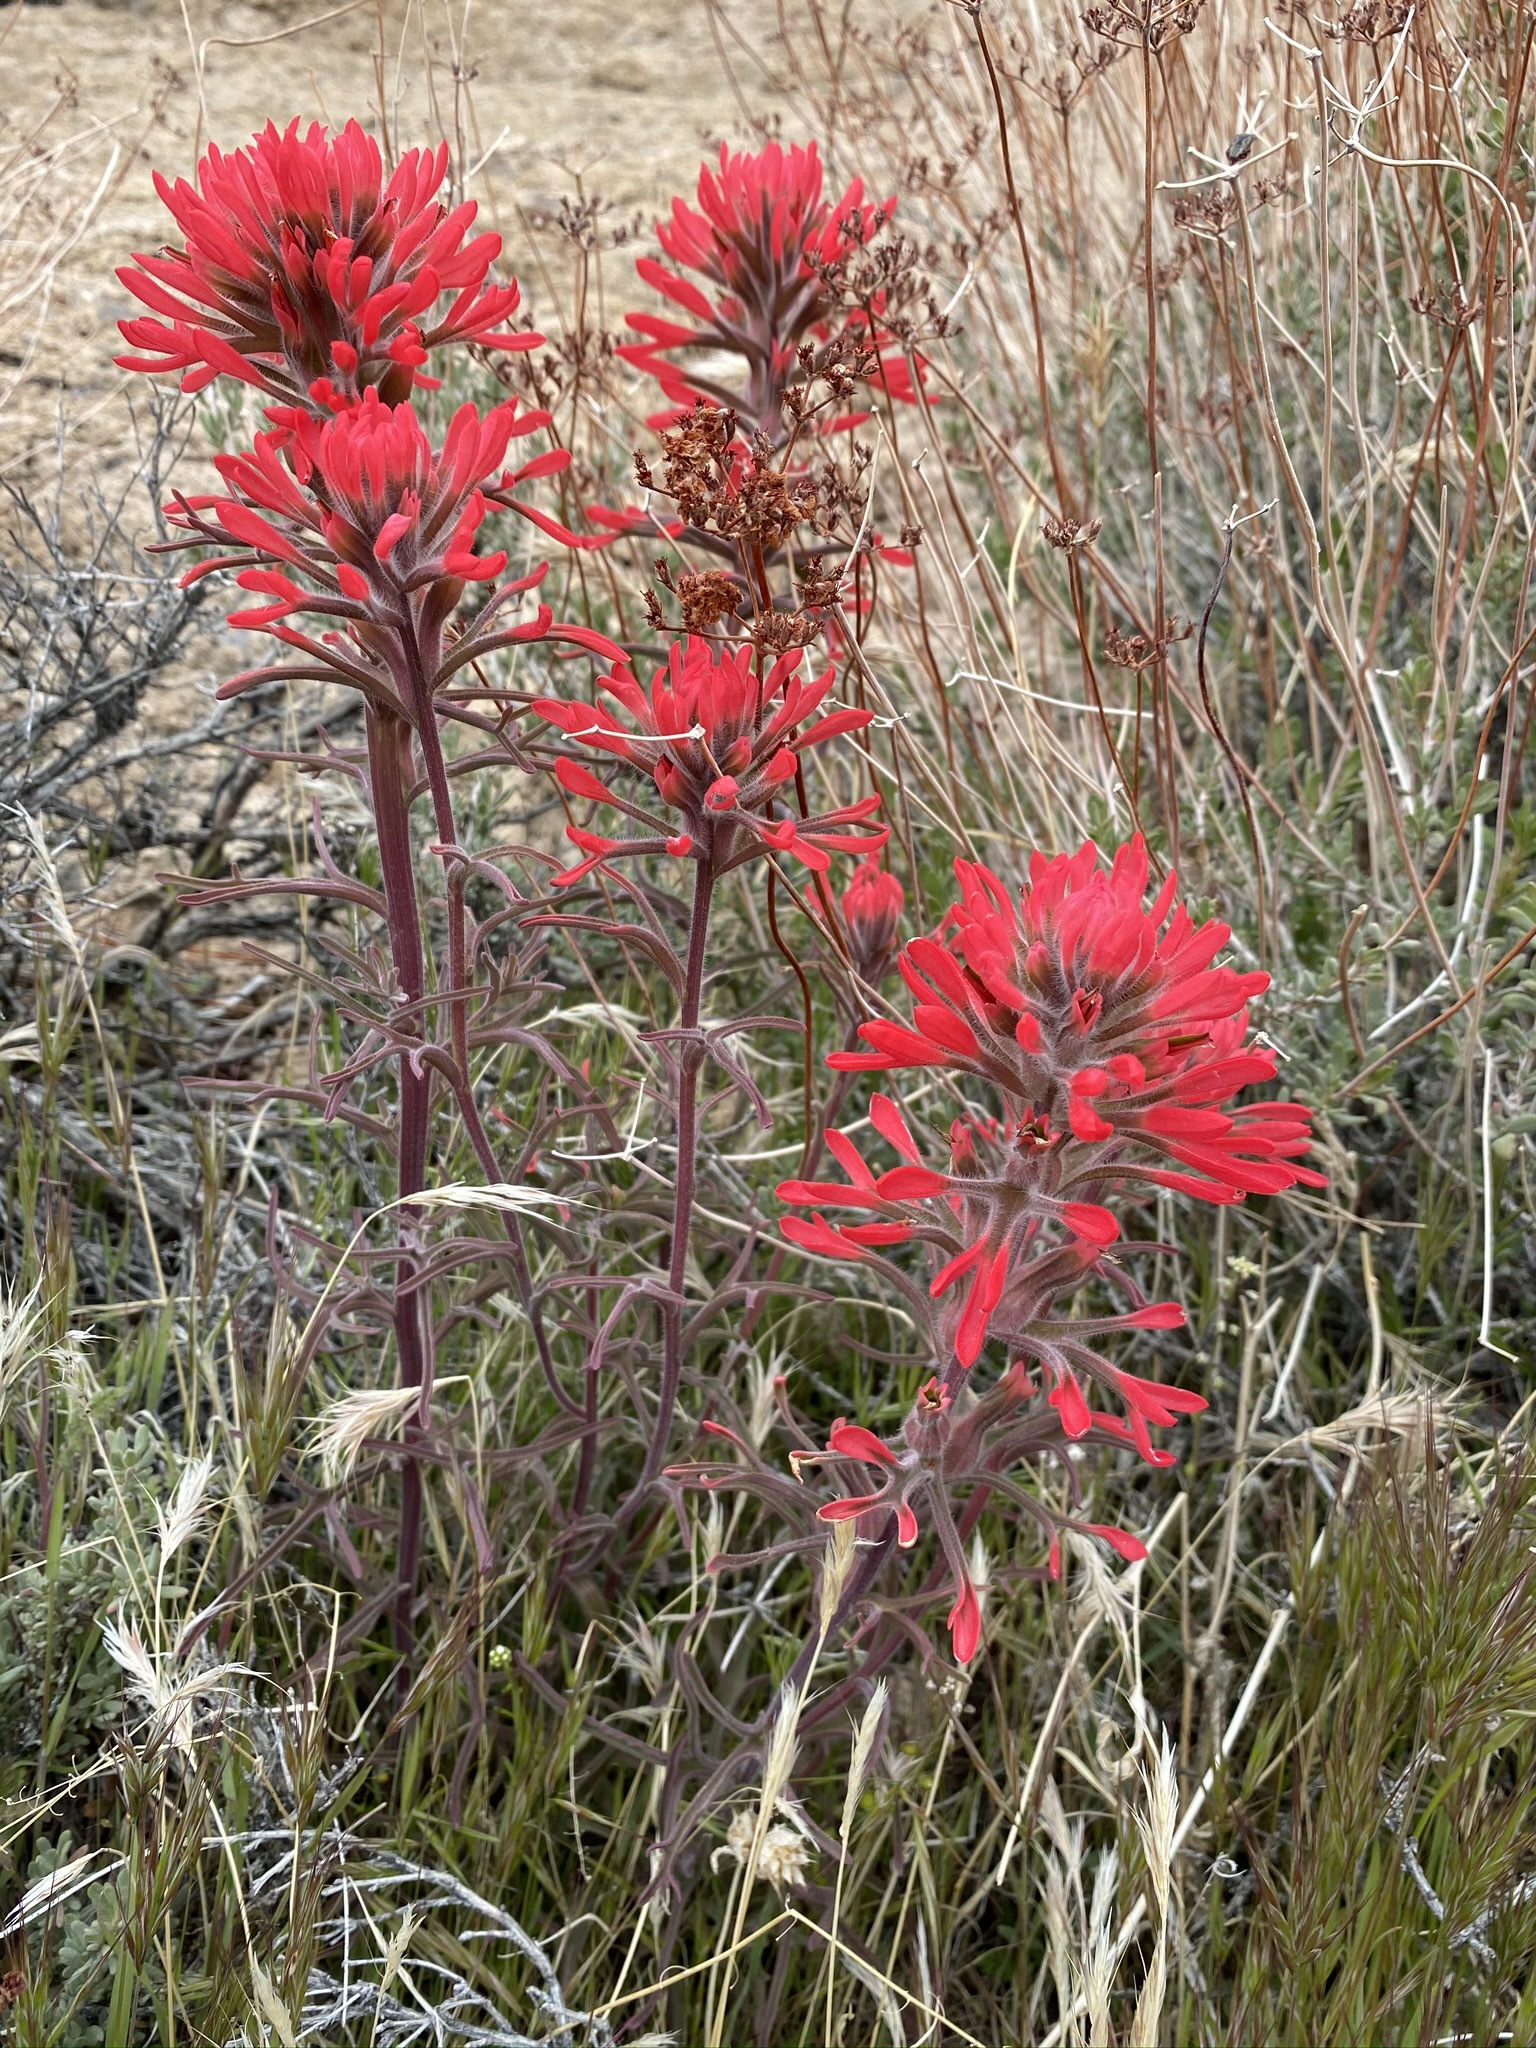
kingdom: Plantae
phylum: Tracheophyta
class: Magnoliopsida
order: Lamiales
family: Orobanchaceae
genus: Castilleja
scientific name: Castilleja chromosa
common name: Desert paintbrush
